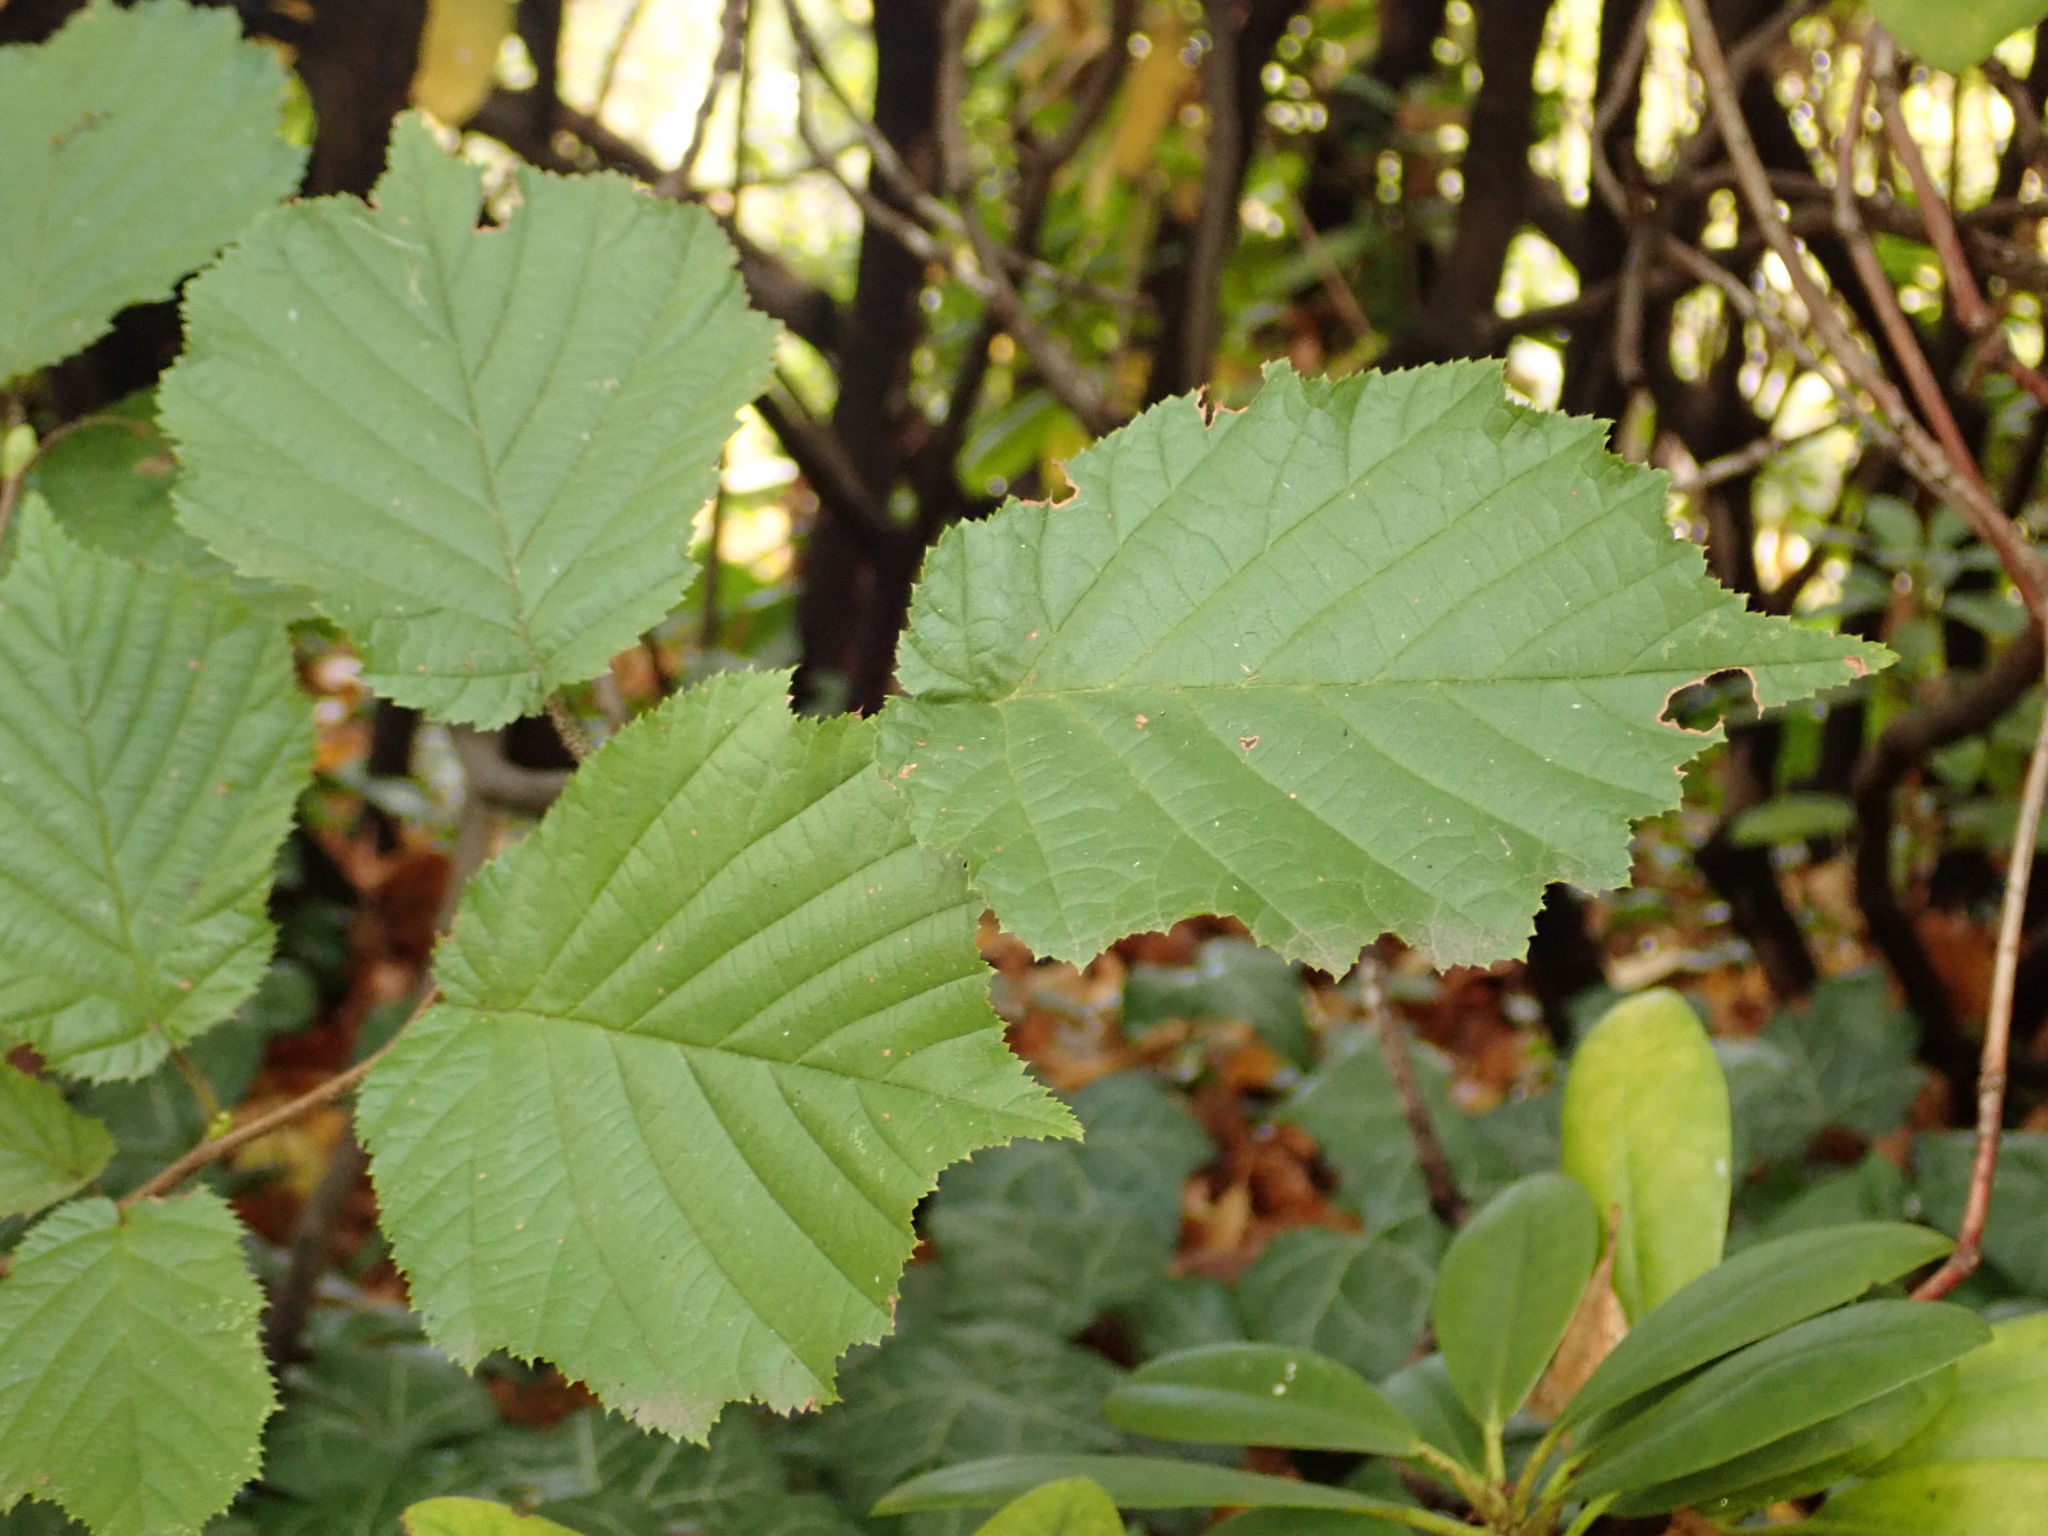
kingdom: Plantae
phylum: Tracheophyta
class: Magnoliopsida
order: Fagales
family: Betulaceae
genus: Corylus
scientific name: Corylus avellana
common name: European hazel
